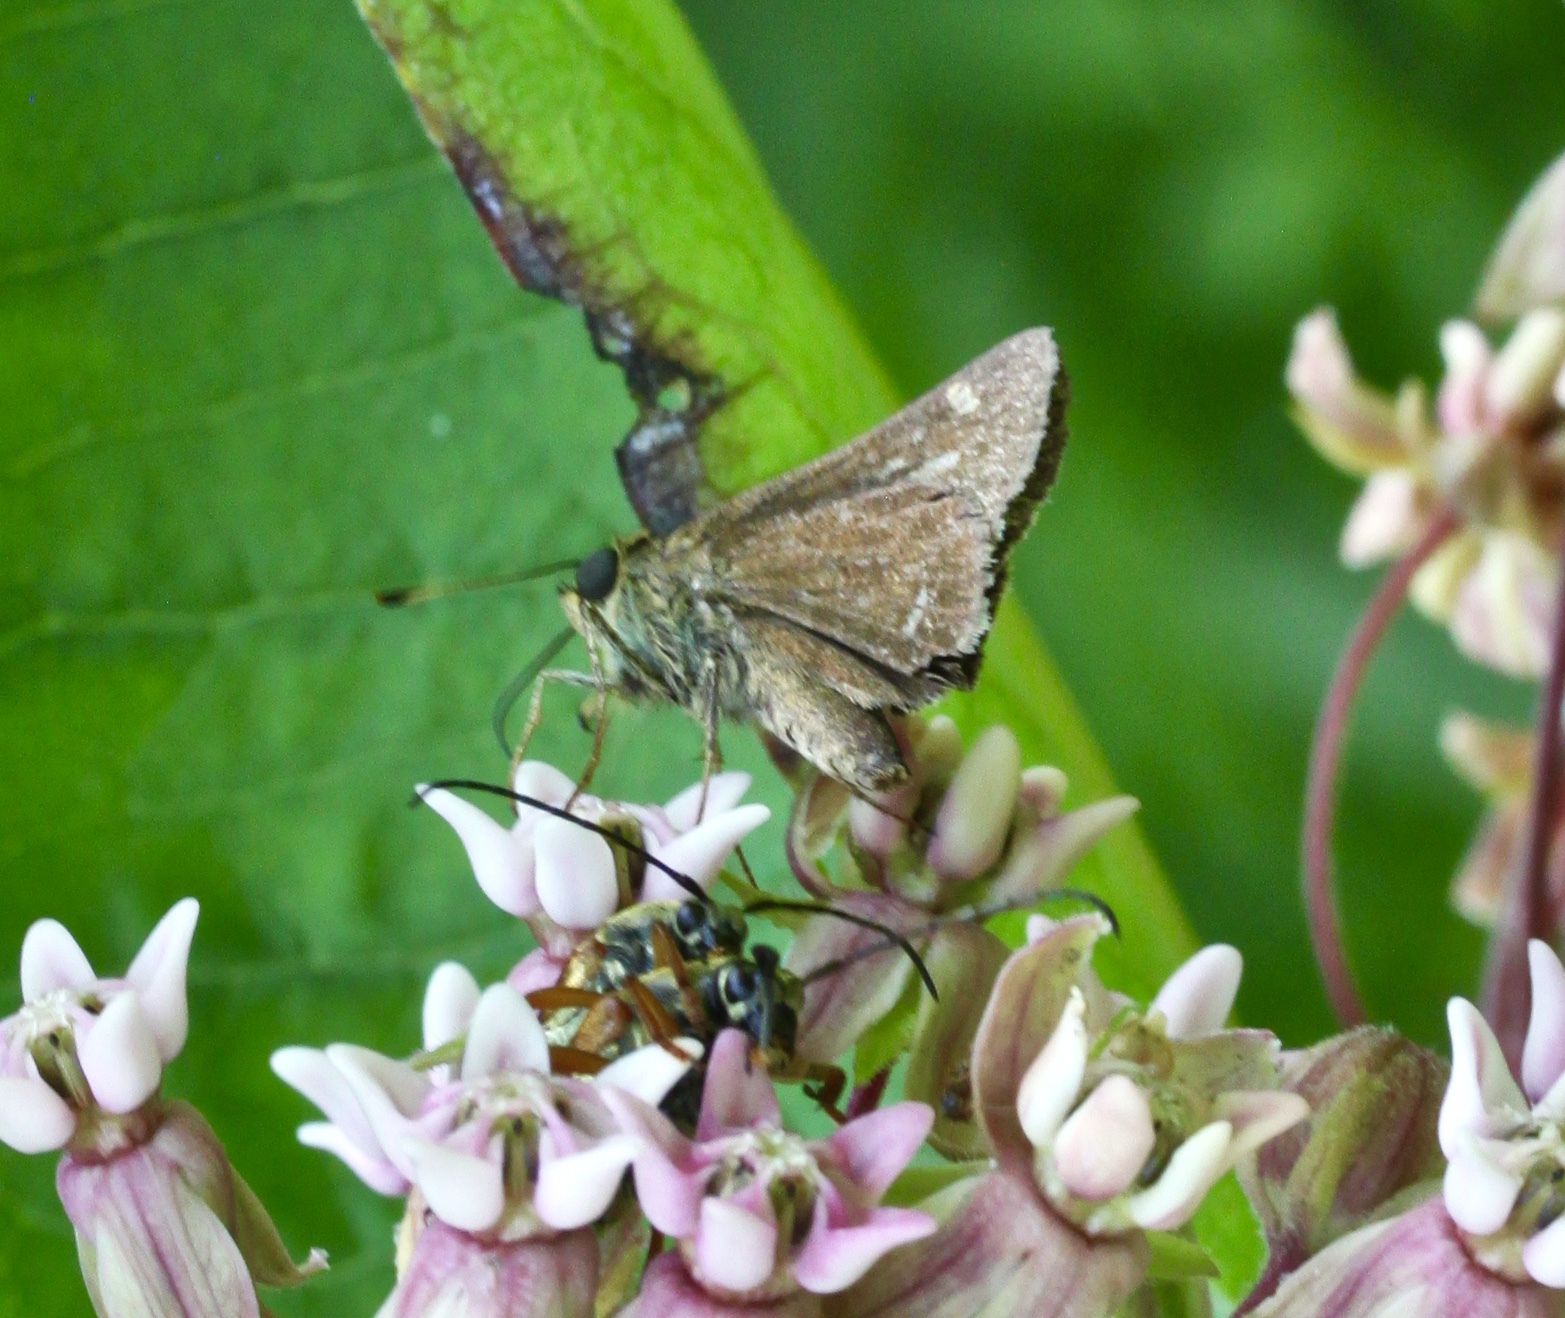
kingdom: Animalia
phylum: Arthropoda
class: Insecta
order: Lepidoptera
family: Hesperiidae
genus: Vernia
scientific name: Vernia verna
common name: Little glassywing
